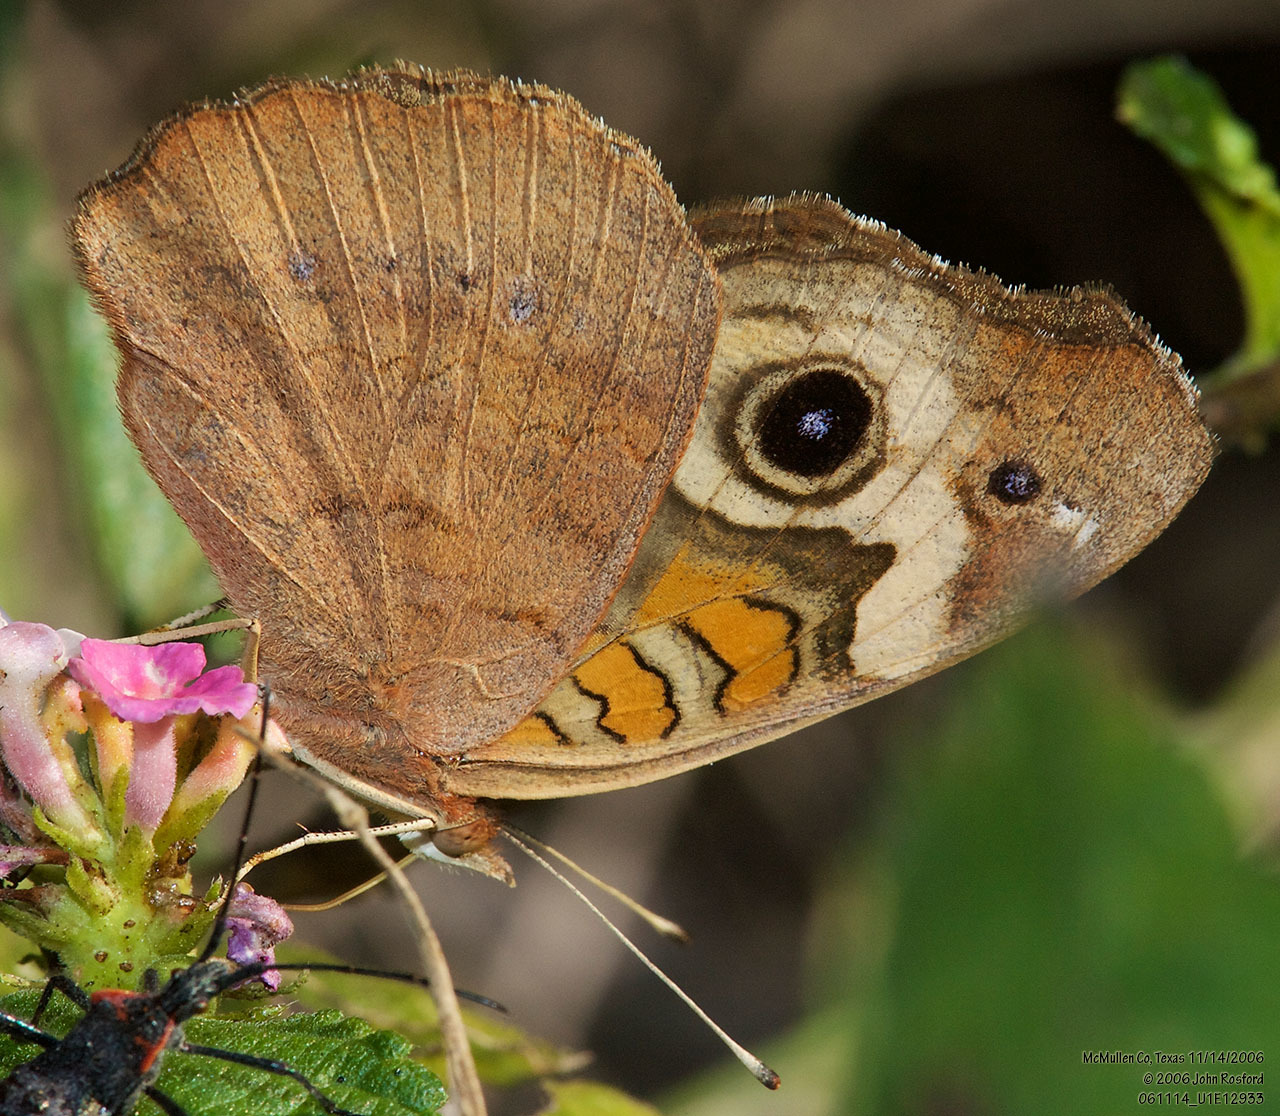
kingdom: Animalia
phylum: Arthropoda
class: Insecta
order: Lepidoptera
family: Nymphalidae
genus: Junonia
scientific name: Junonia coenia
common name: Common buckeye
